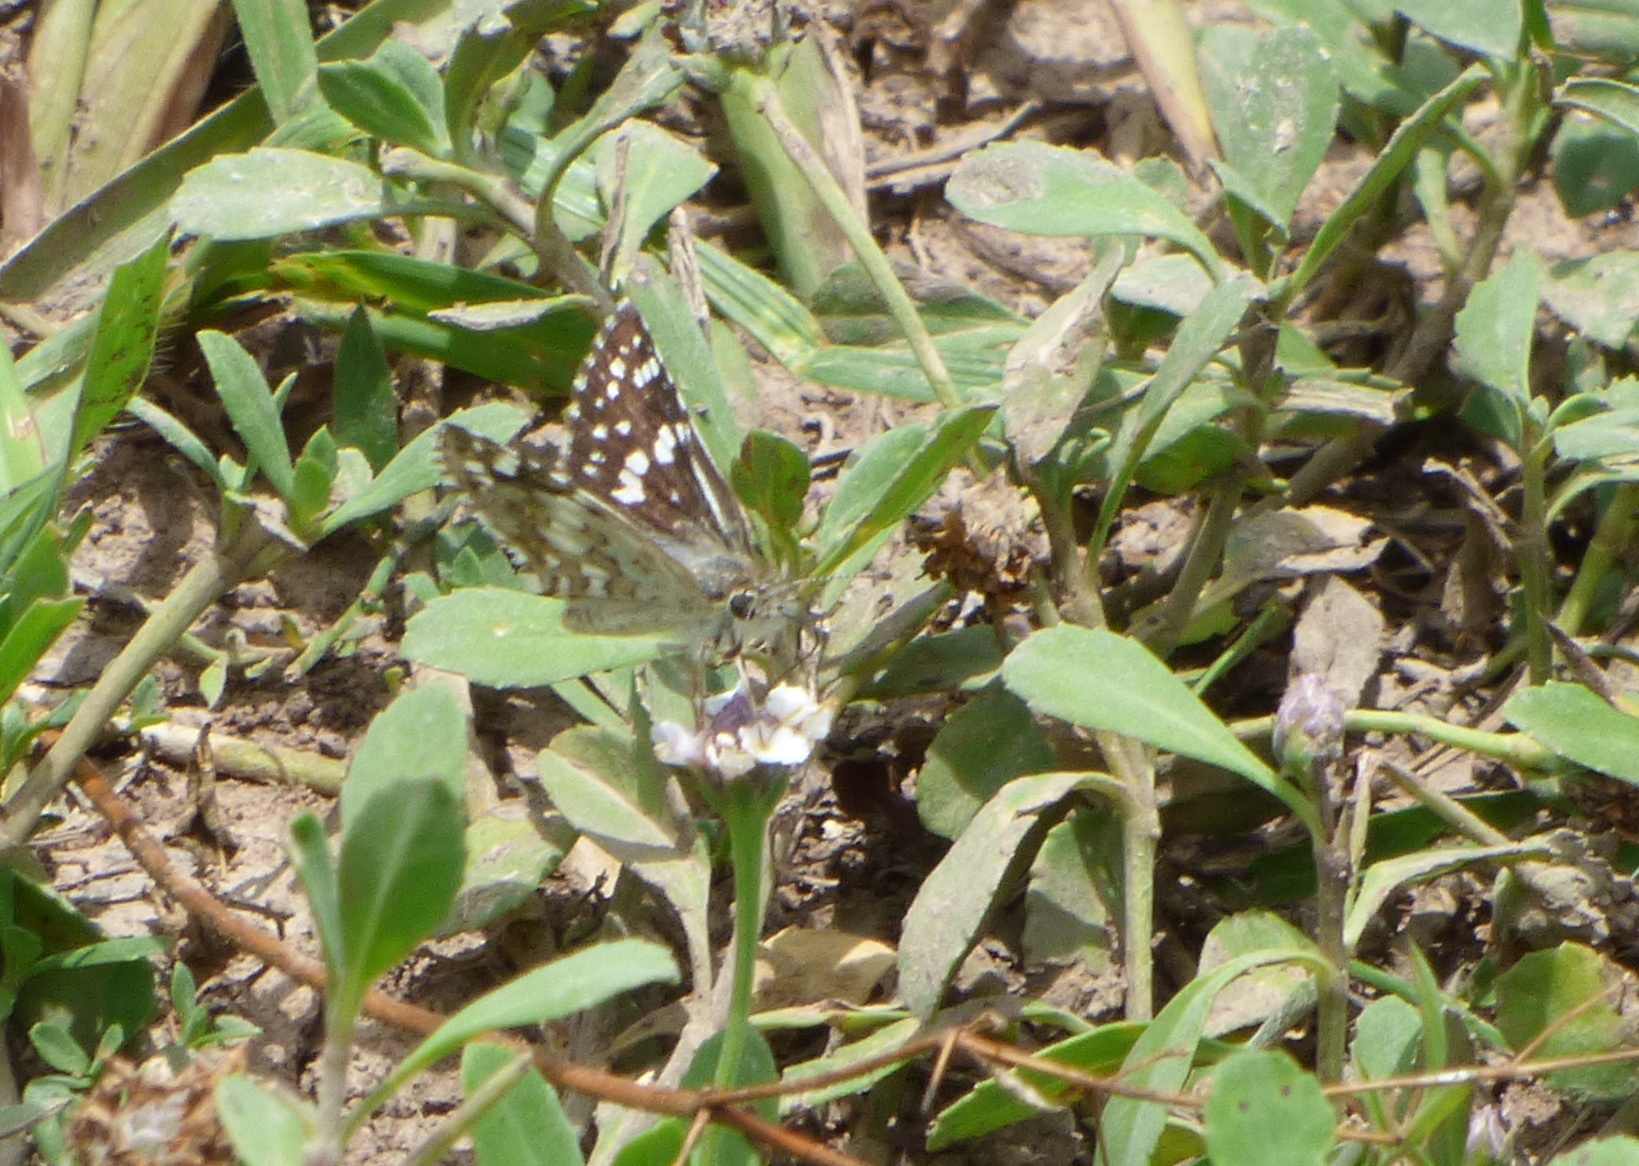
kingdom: Animalia
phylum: Arthropoda
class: Insecta
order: Lepidoptera
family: Hesperiidae
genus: Burnsius
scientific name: Burnsius orcynoides
